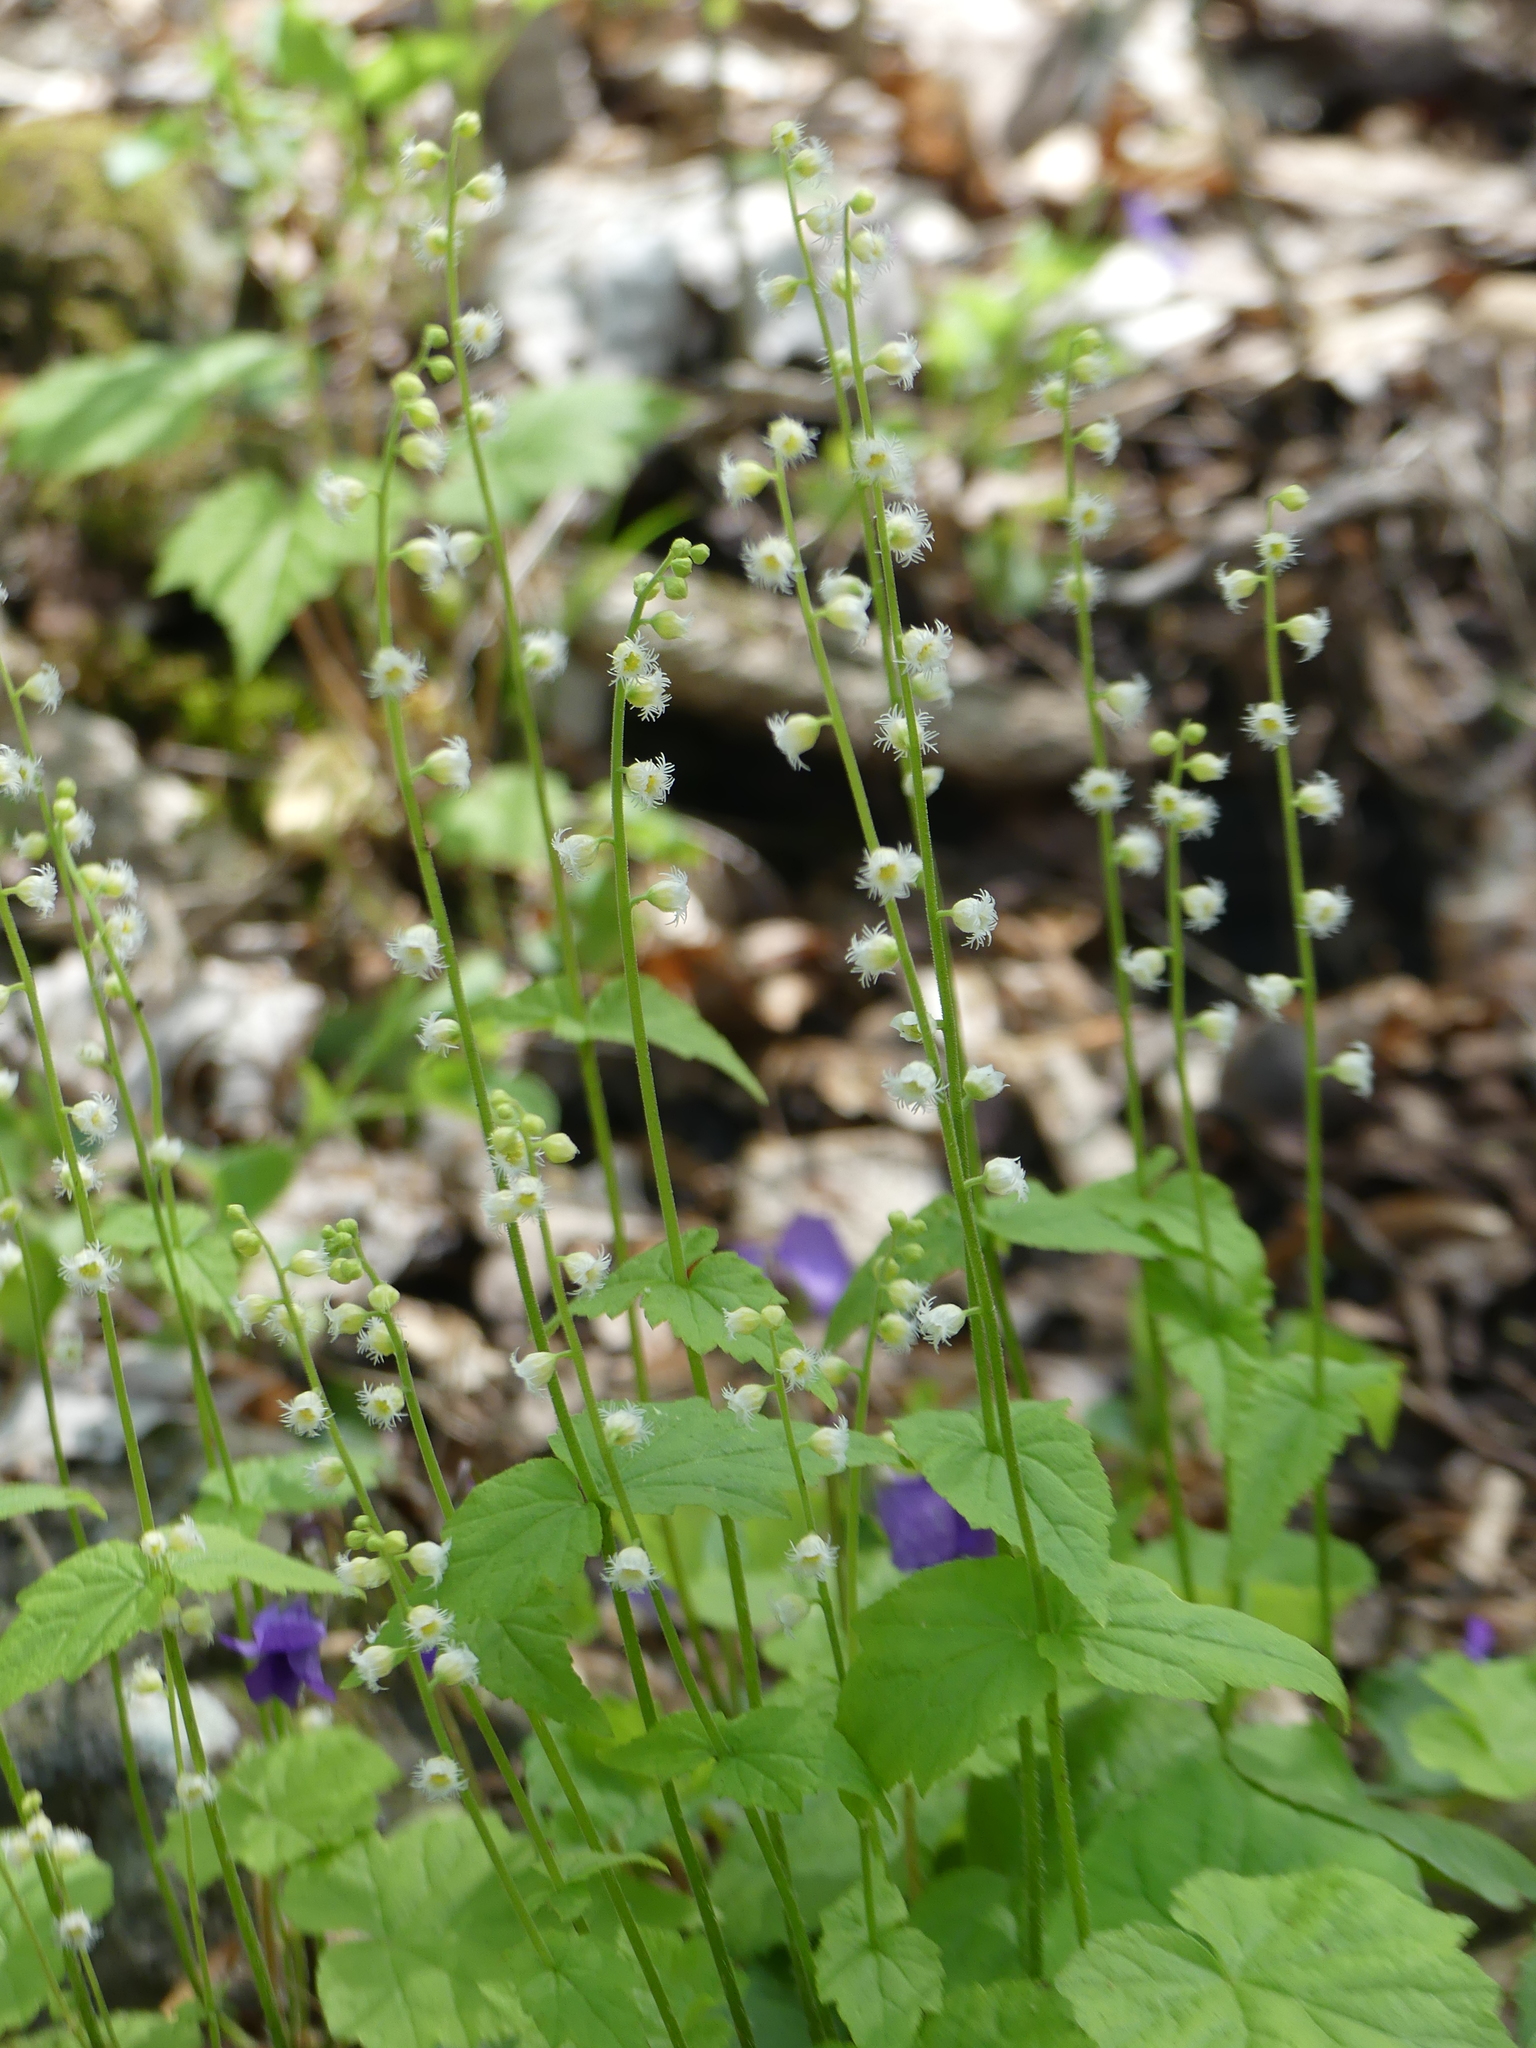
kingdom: Plantae
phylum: Tracheophyta
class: Magnoliopsida
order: Saxifragales
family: Saxifragaceae
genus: Mitella
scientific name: Mitella diphylla
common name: Coolwort
